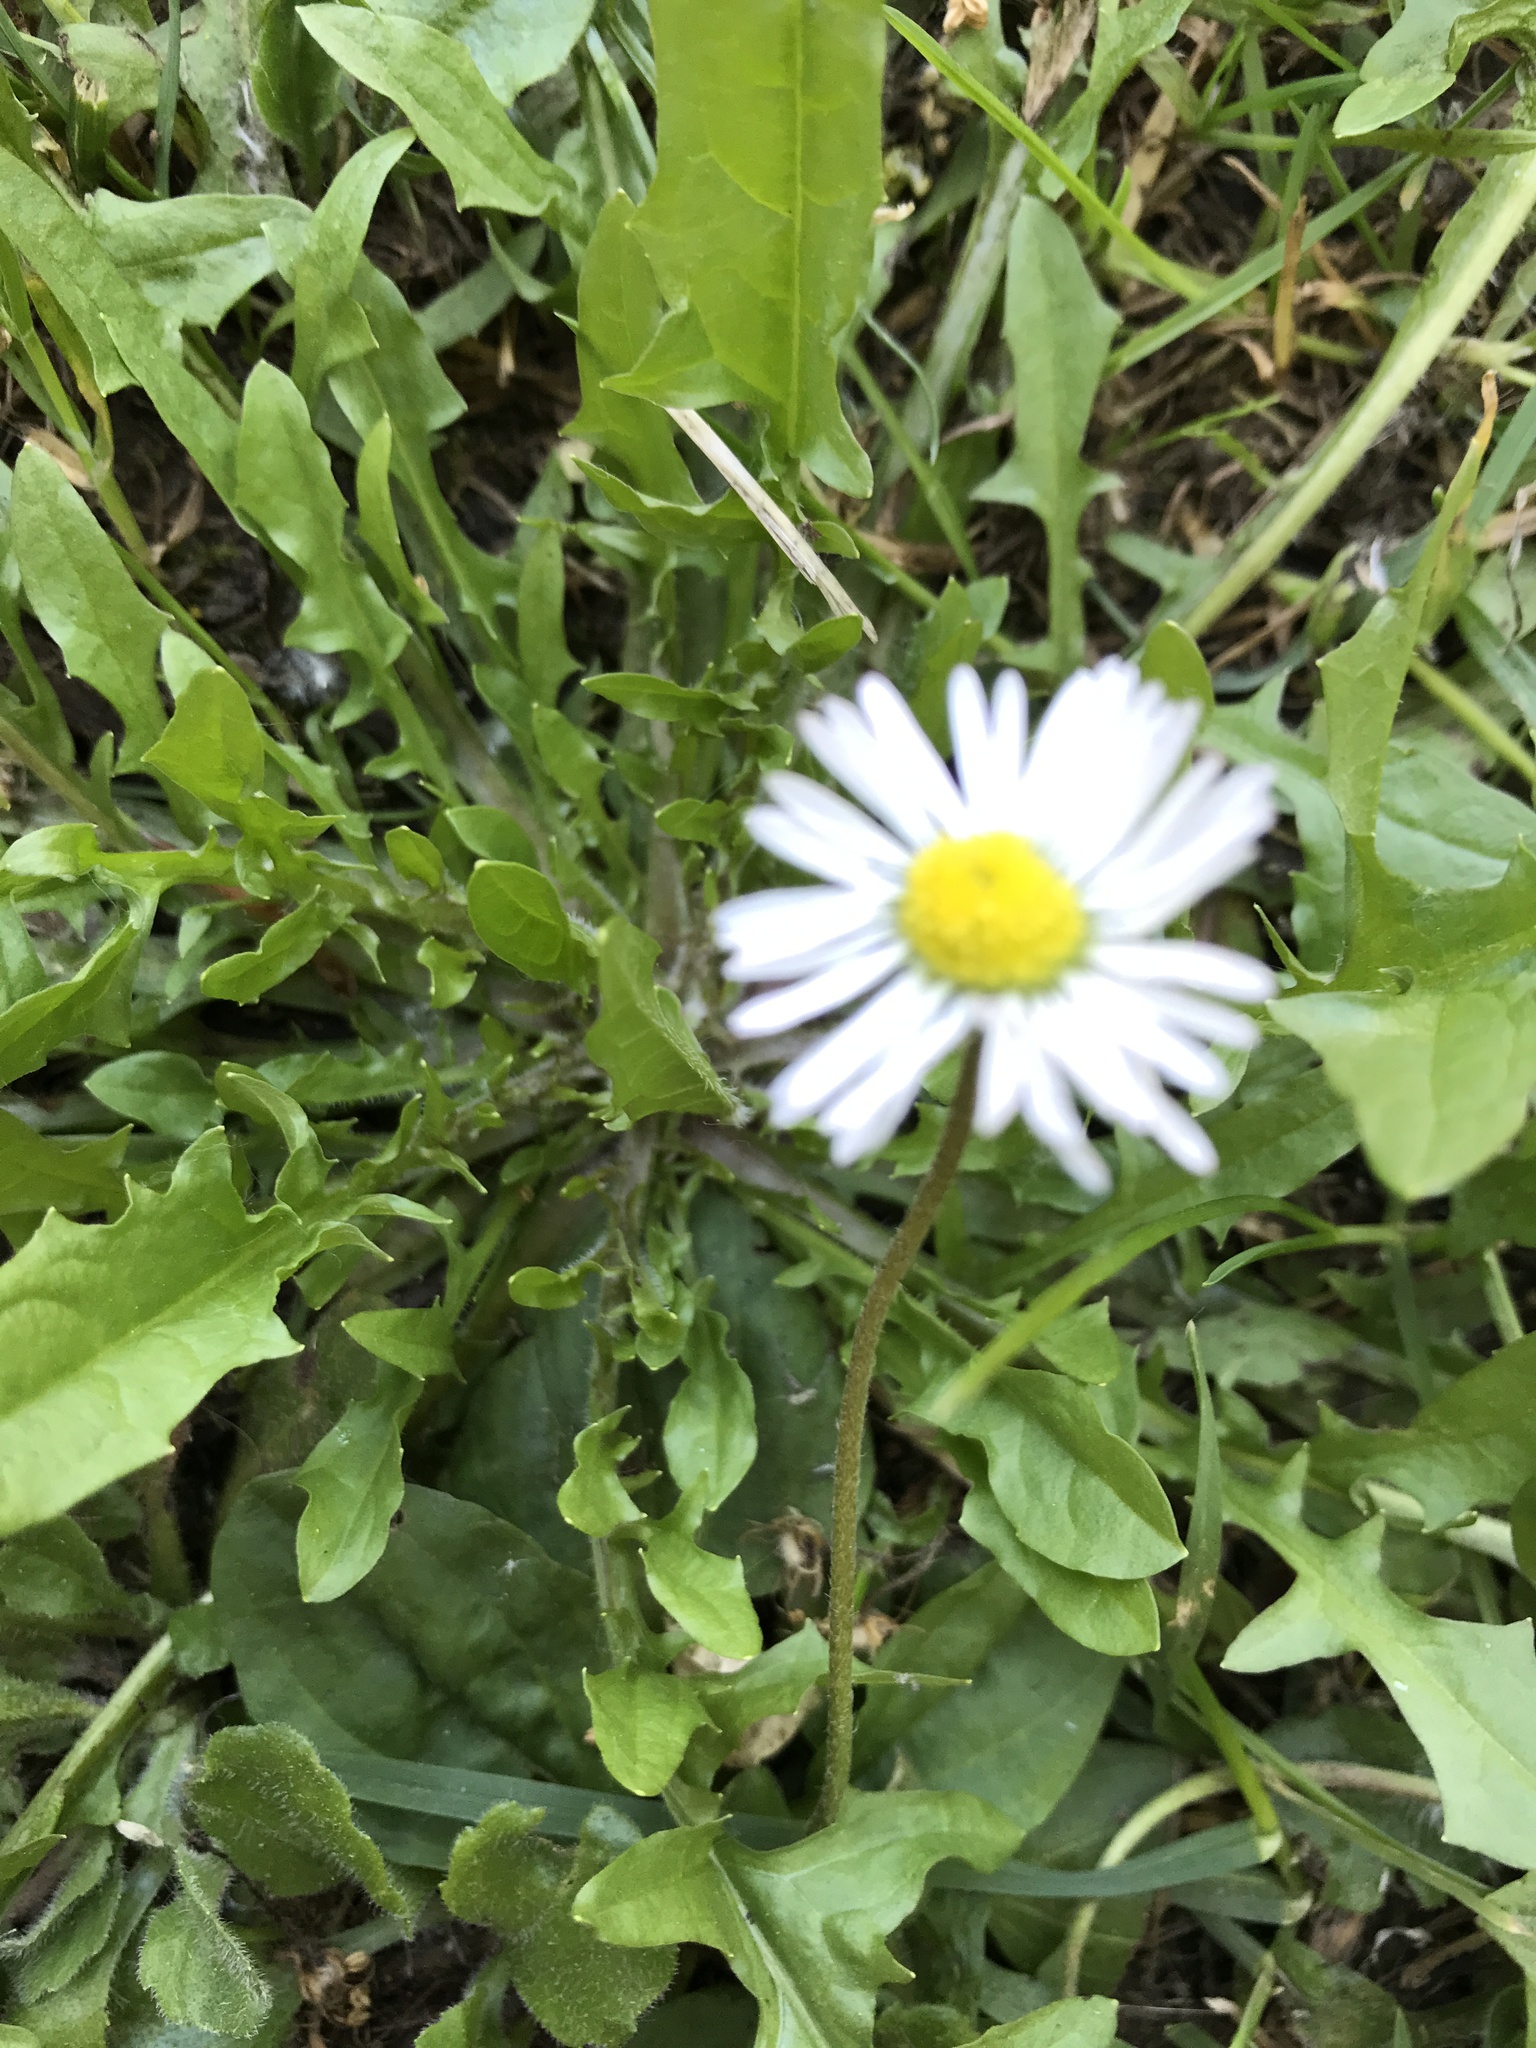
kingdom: Plantae
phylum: Tracheophyta
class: Magnoliopsida
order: Asterales
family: Asteraceae
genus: Bellis
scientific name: Bellis perennis
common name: Lawndaisy
